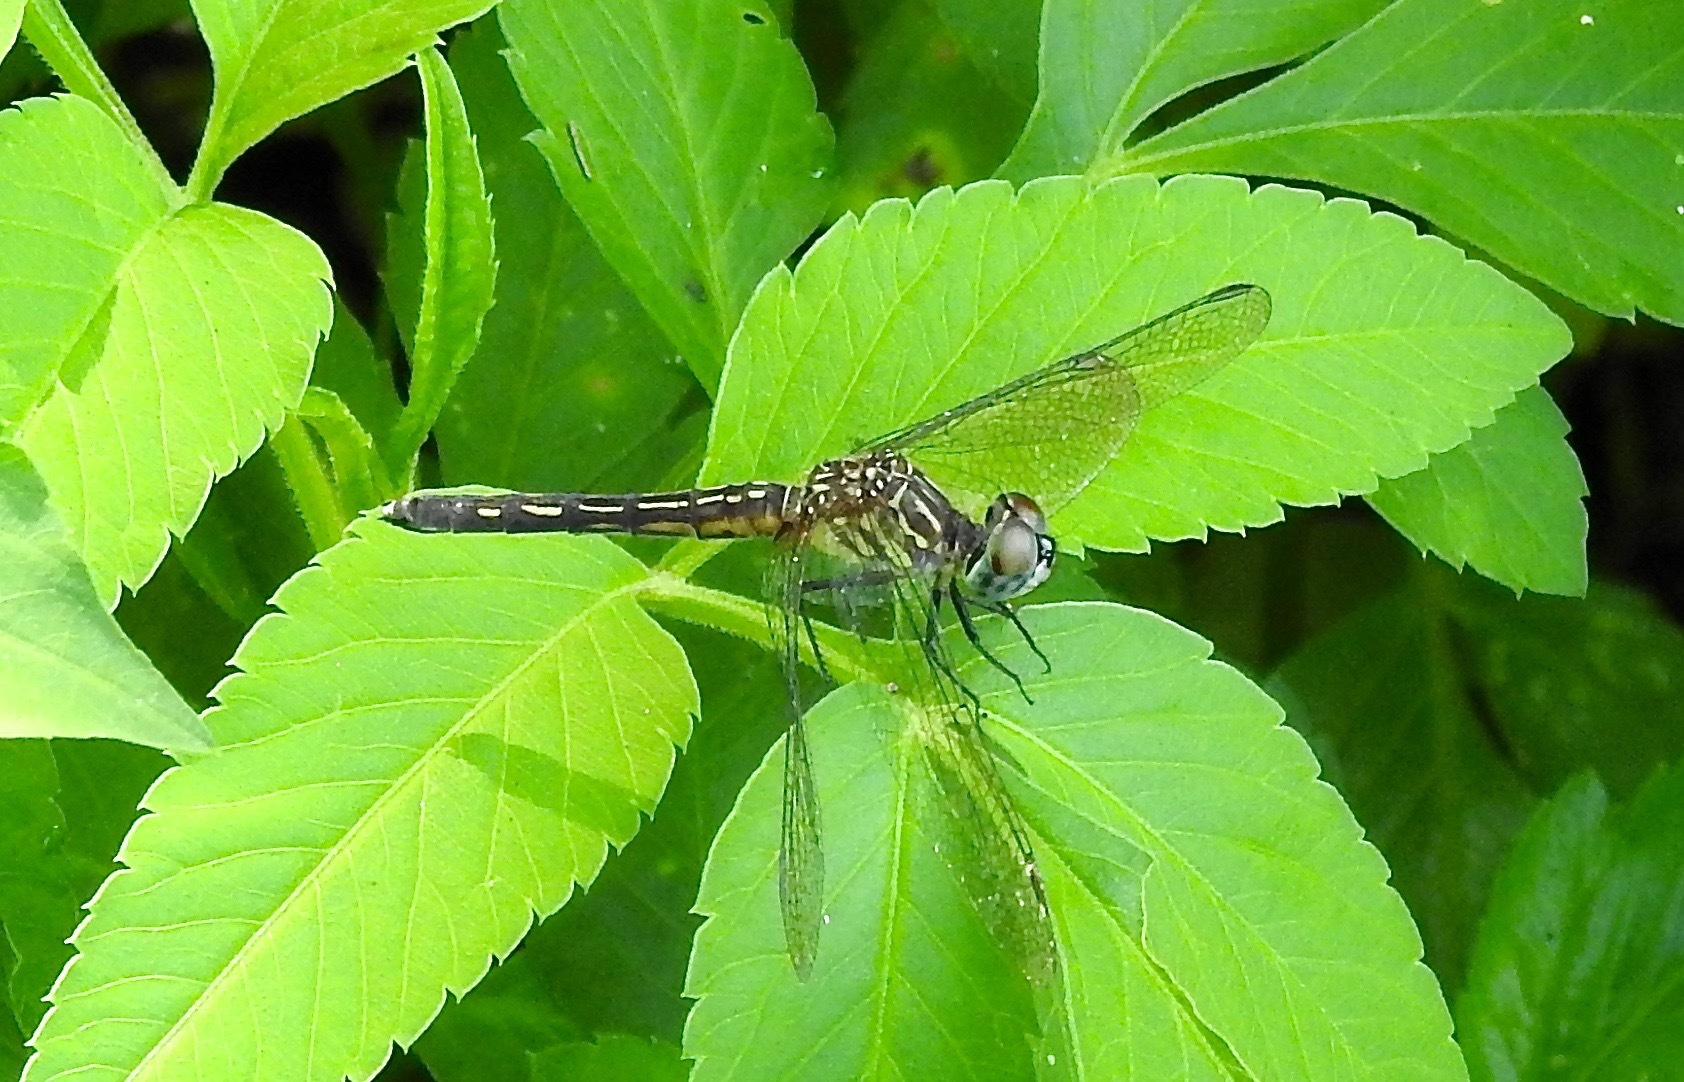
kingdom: Animalia
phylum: Arthropoda
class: Insecta
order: Odonata
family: Libellulidae
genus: Pachydiplax
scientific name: Pachydiplax longipennis
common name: Blue dasher
